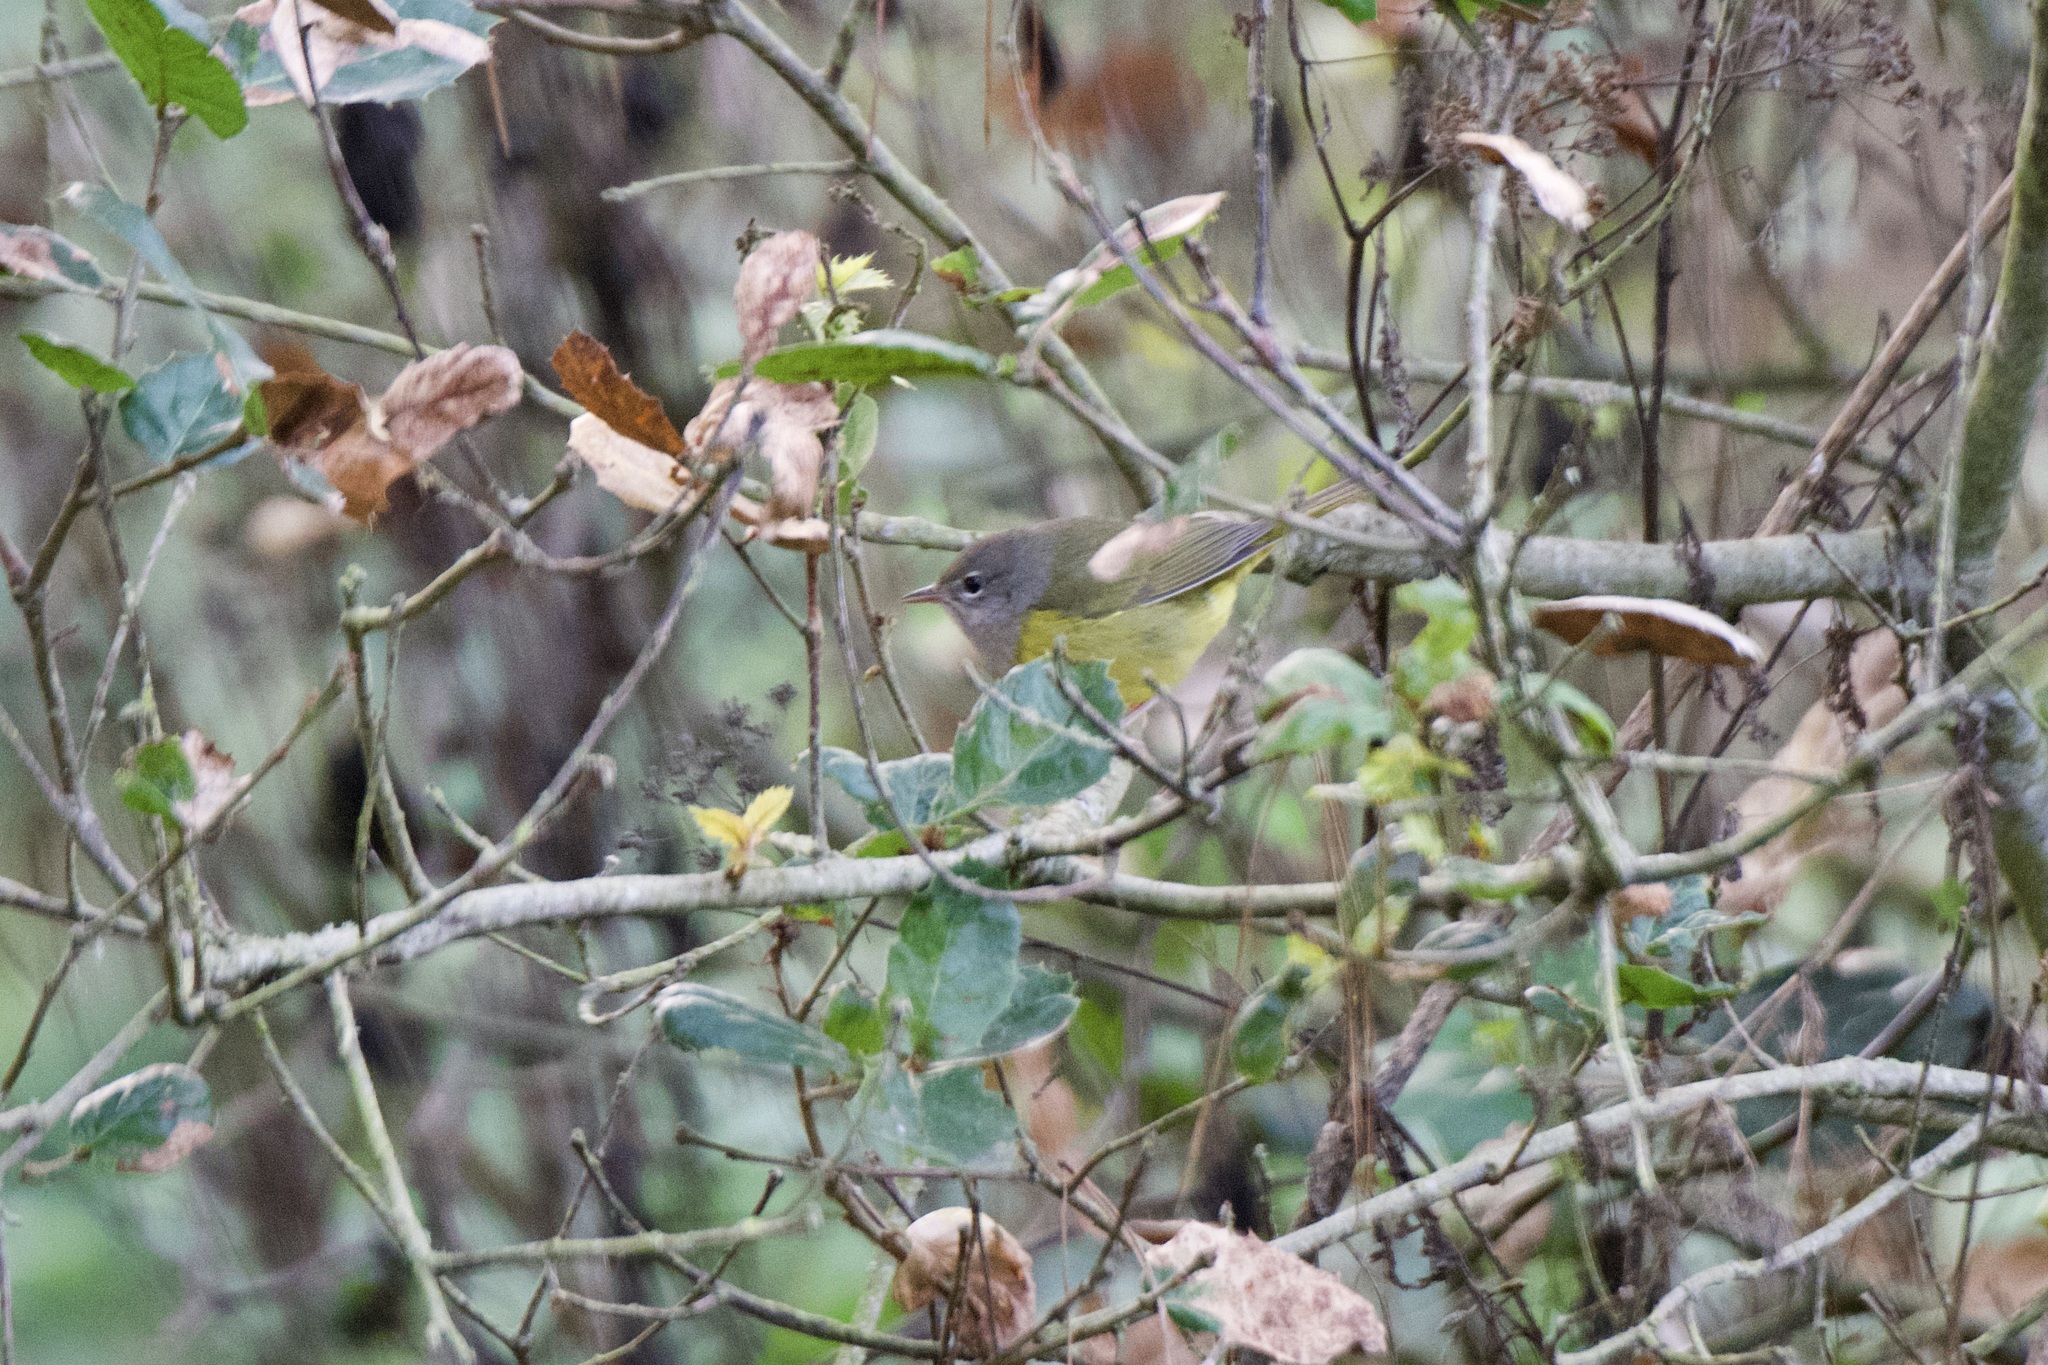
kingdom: Animalia
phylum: Chordata
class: Aves
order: Passeriformes
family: Parulidae
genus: Geothlypis
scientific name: Geothlypis tolmiei
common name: Macgillivray's warbler
